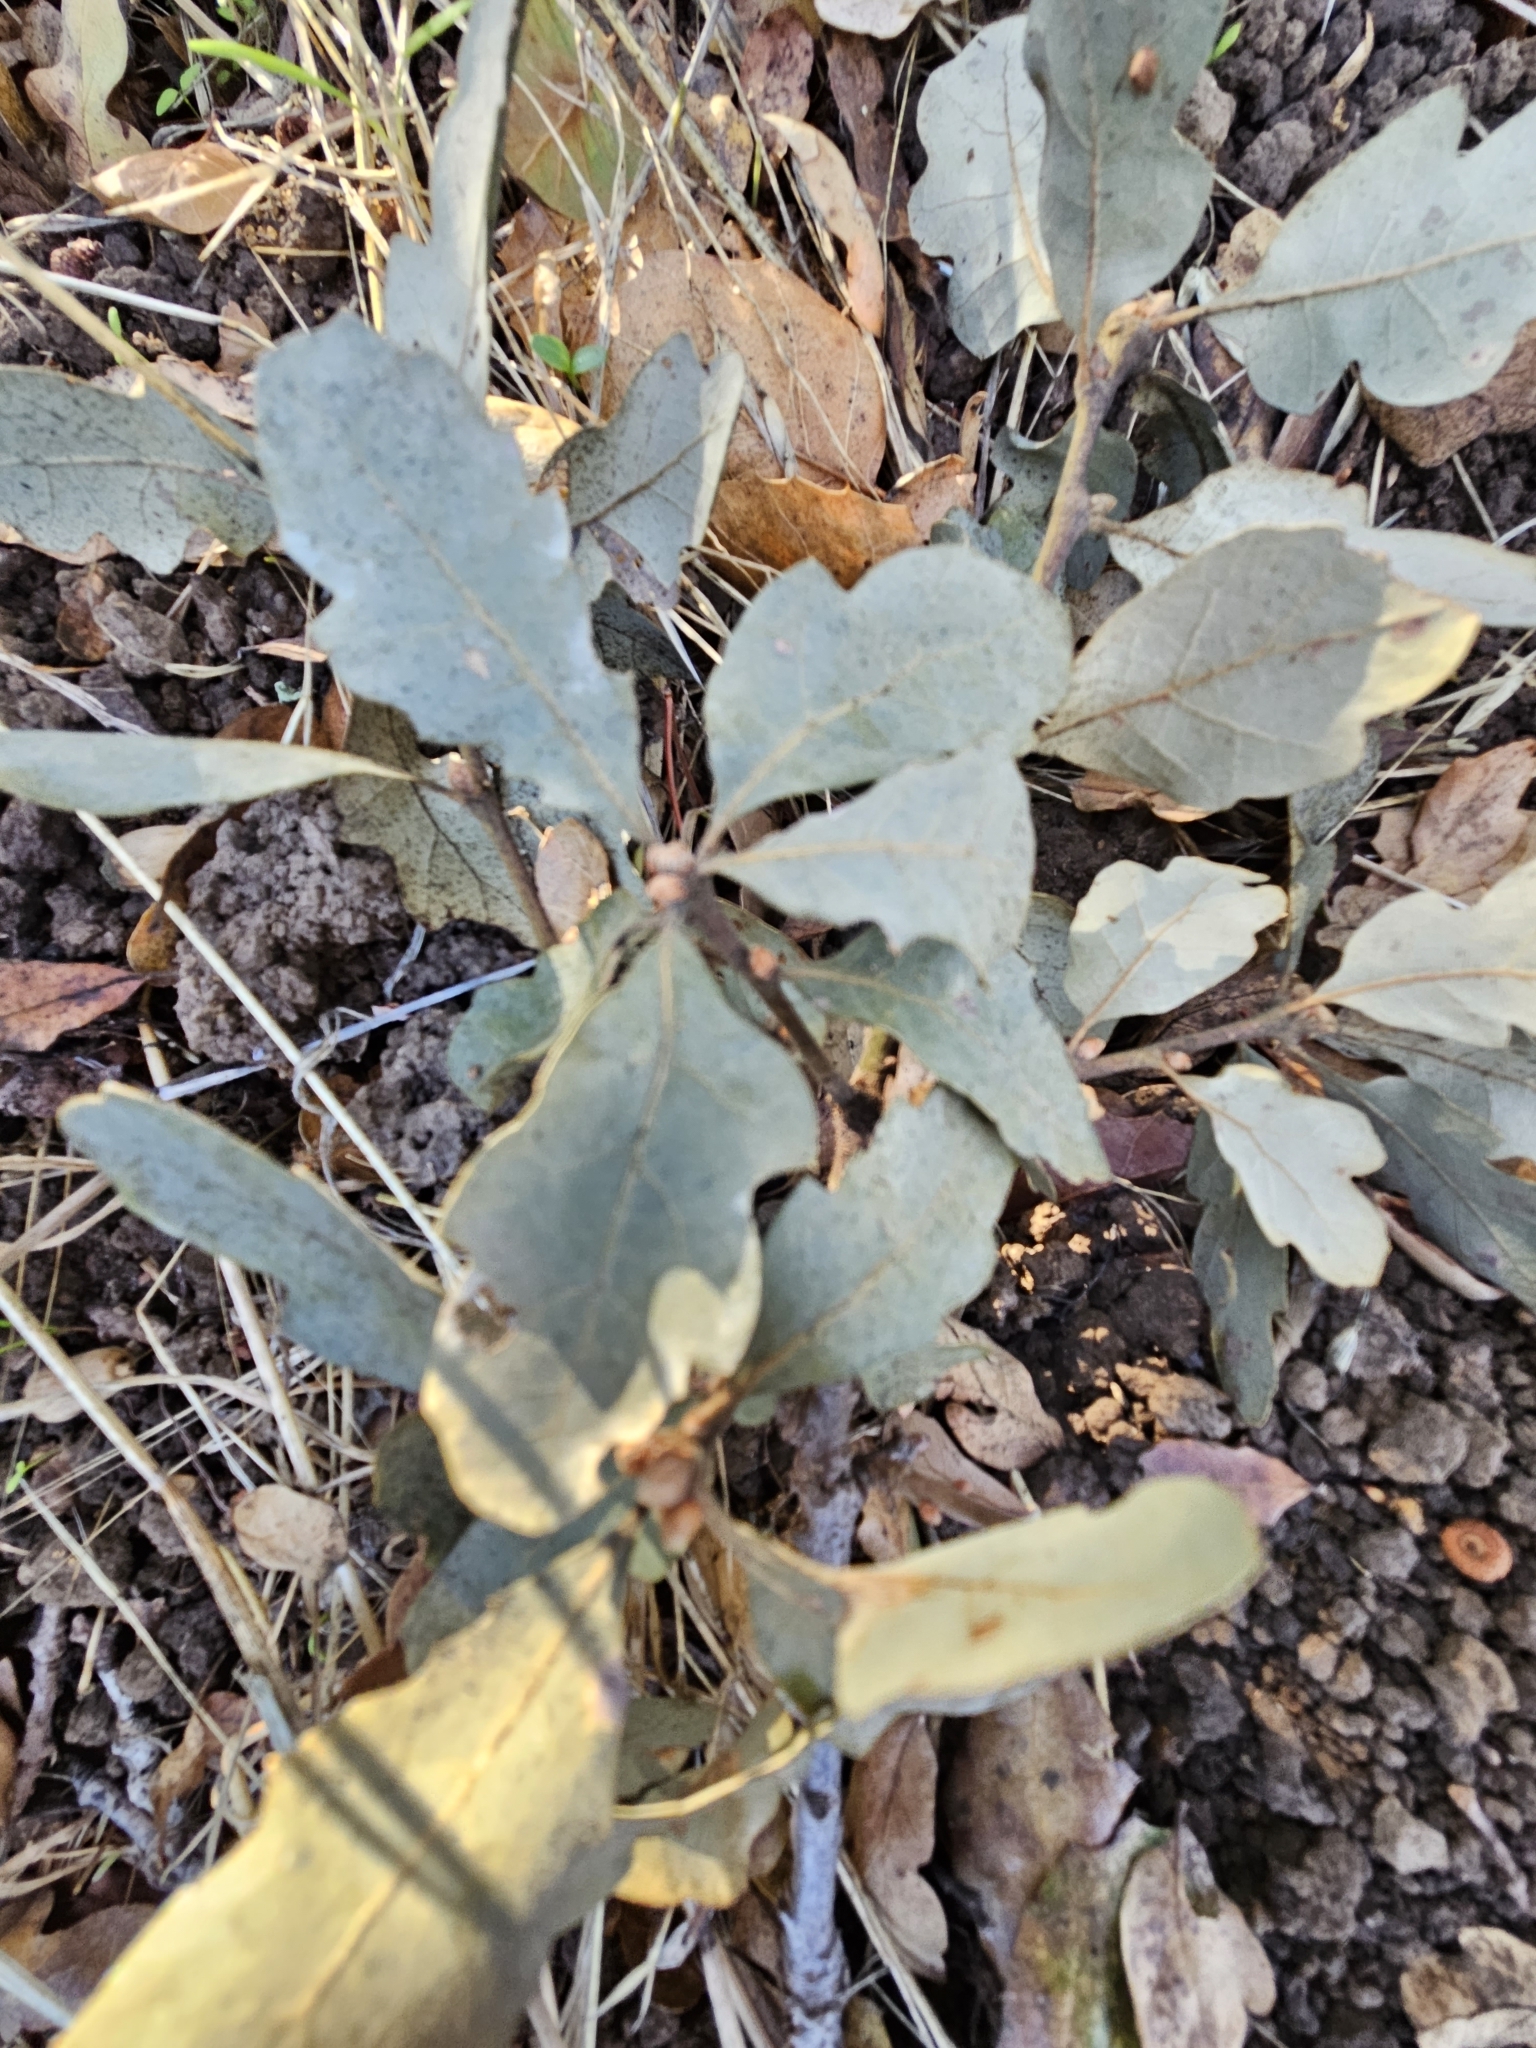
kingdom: Plantae
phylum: Tracheophyta
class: Magnoliopsida
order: Fagales
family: Fagaceae
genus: Quercus
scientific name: Quercus douglasii
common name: Blue oak
